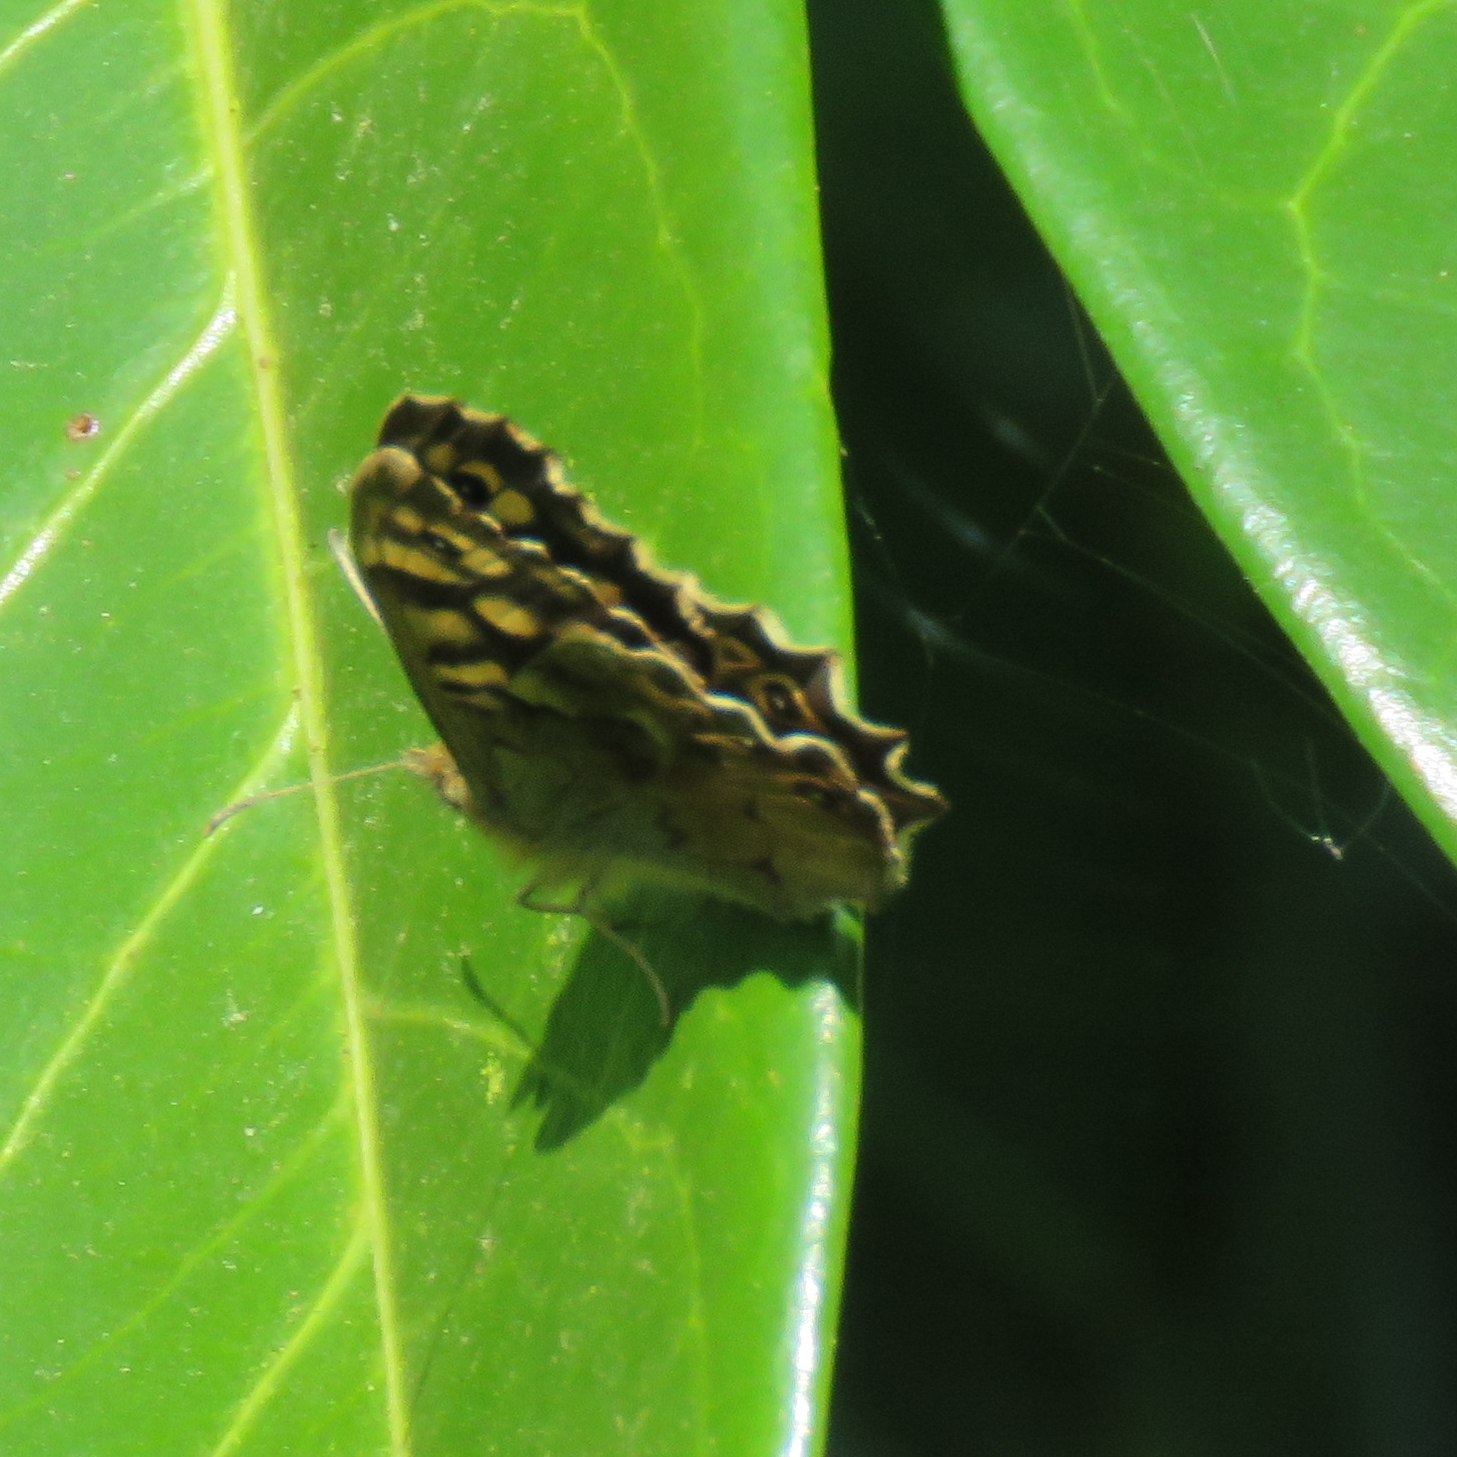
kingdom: Animalia
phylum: Arthropoda
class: Insecta
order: Lepidoptera
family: Nymphalidae
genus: Pararge
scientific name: Pararge aegeria
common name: Speckled wood
